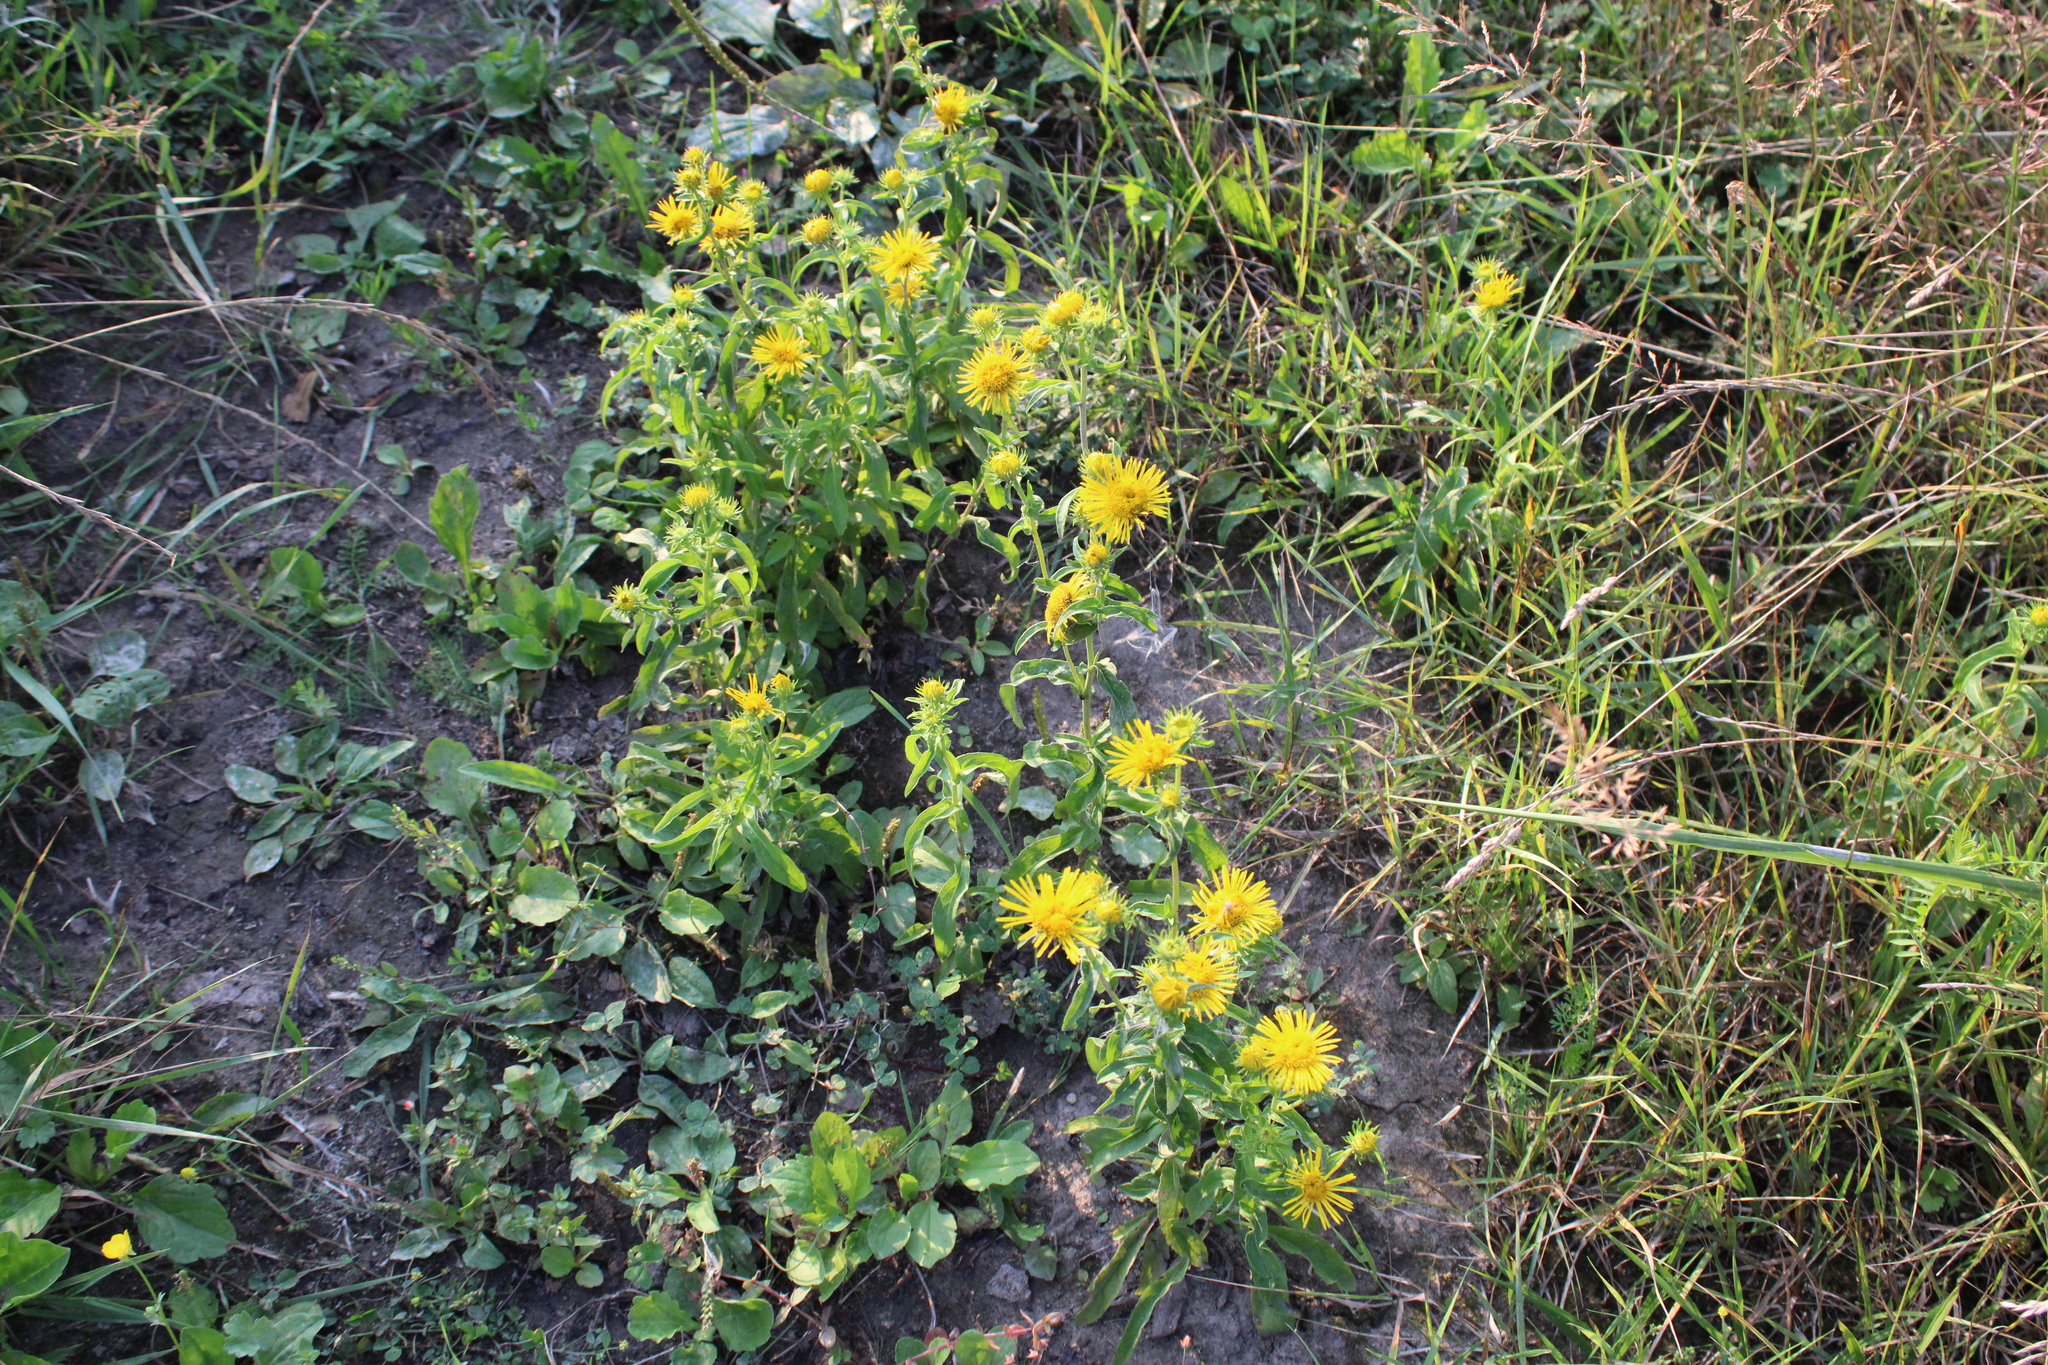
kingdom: Plantae
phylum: Tracheophyta
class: Magnoliopsida
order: Asterales
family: Asteraceae
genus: Pentanema
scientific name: Pentanema britannicum
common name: British elecampane
